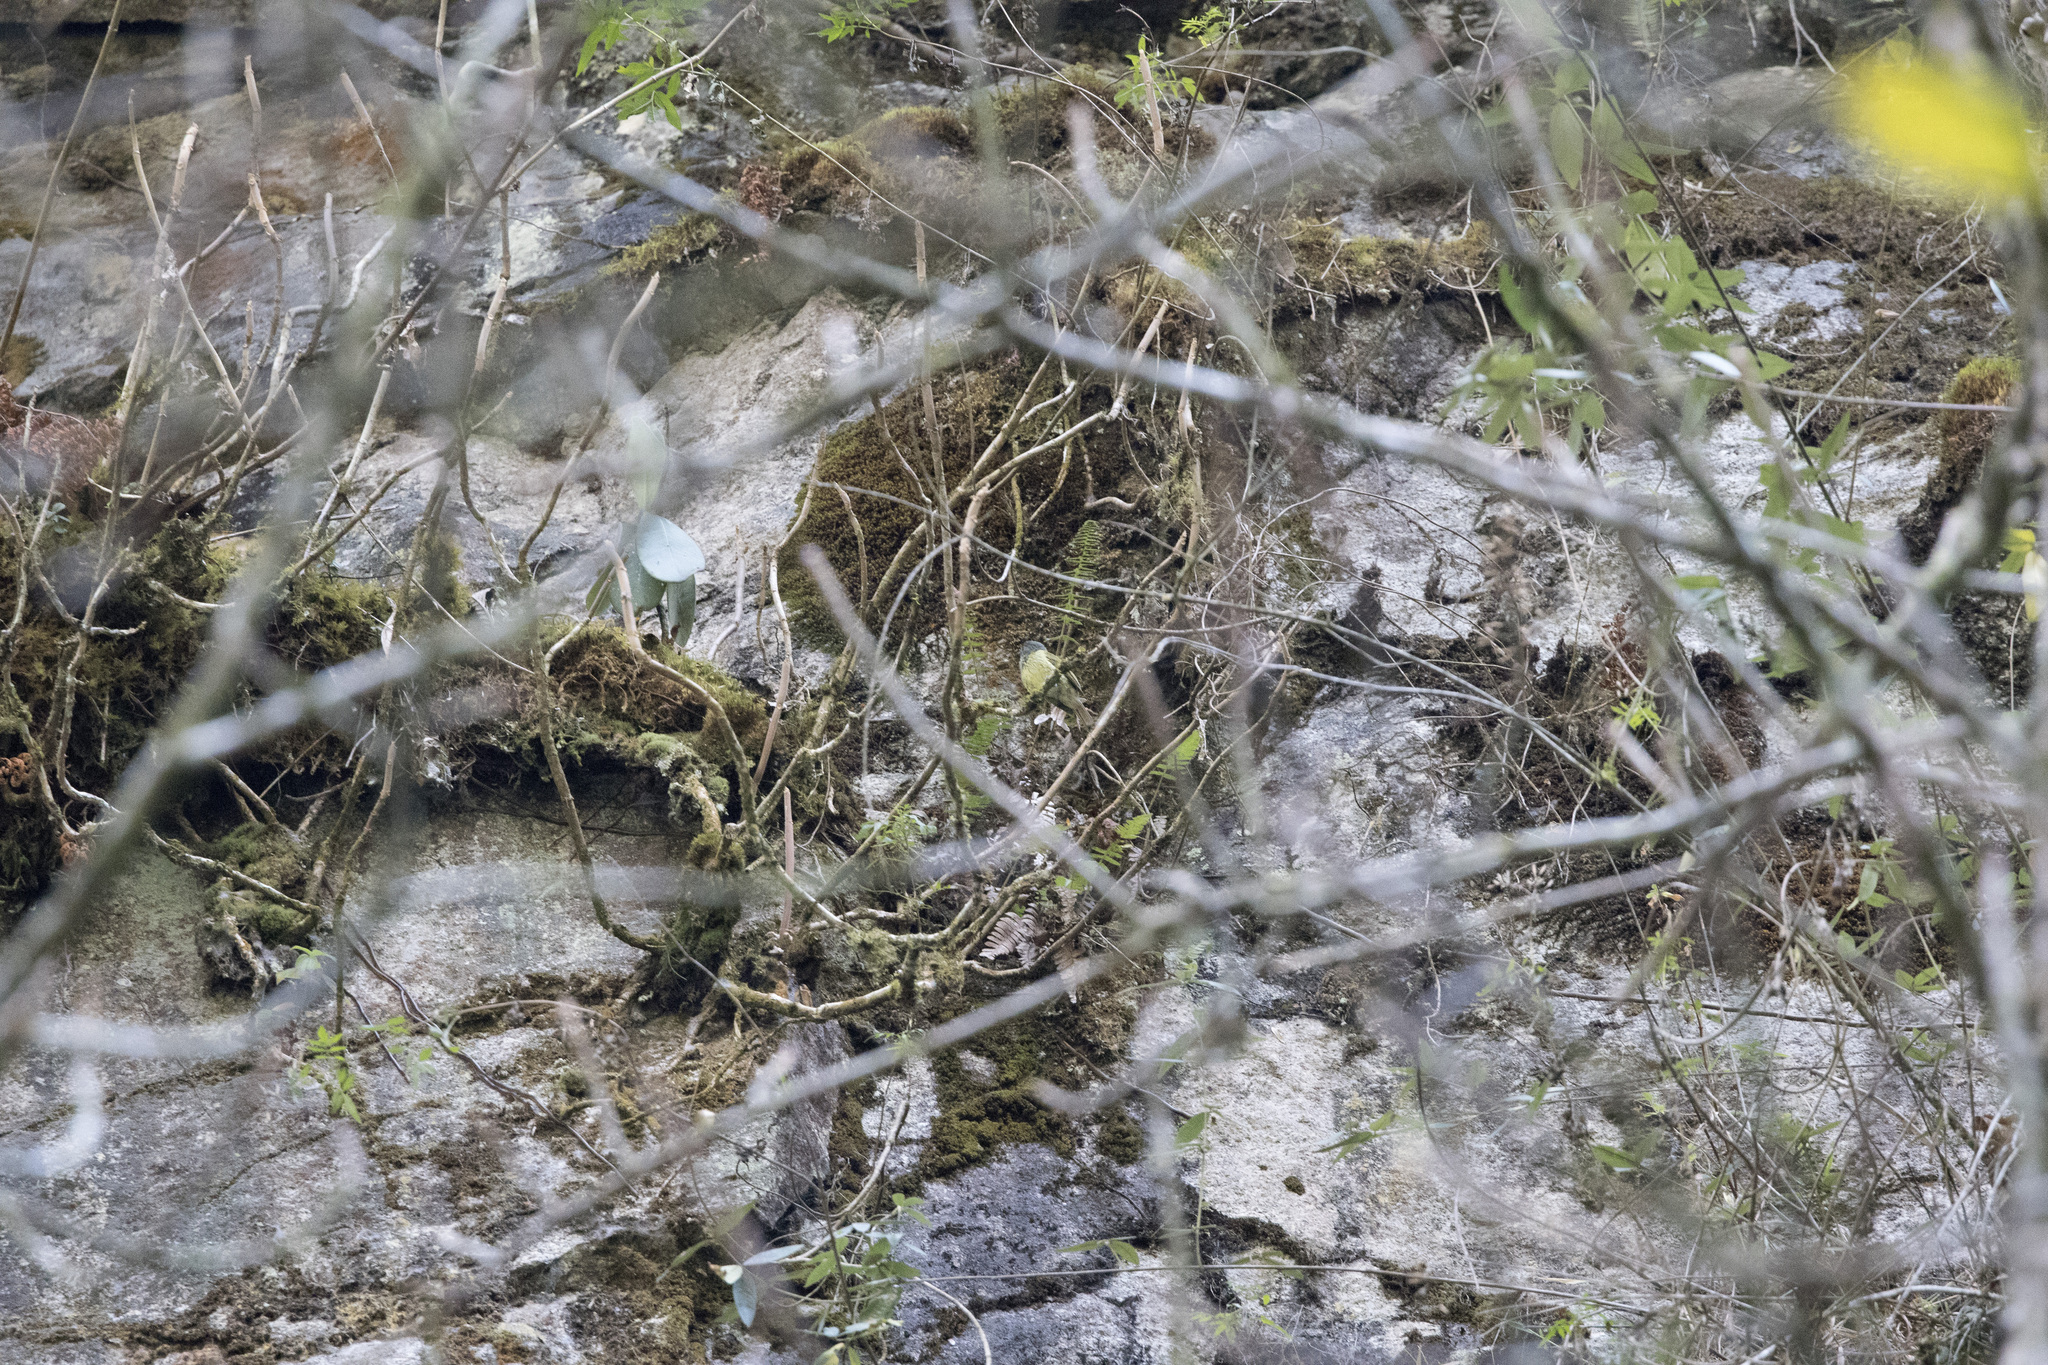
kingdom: Animalia
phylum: Chordata
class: Aves
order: Passeriformes
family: Tyrannidae
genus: Mionectes
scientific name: Mionectes striaticollis
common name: Streak-necked flycatcher
